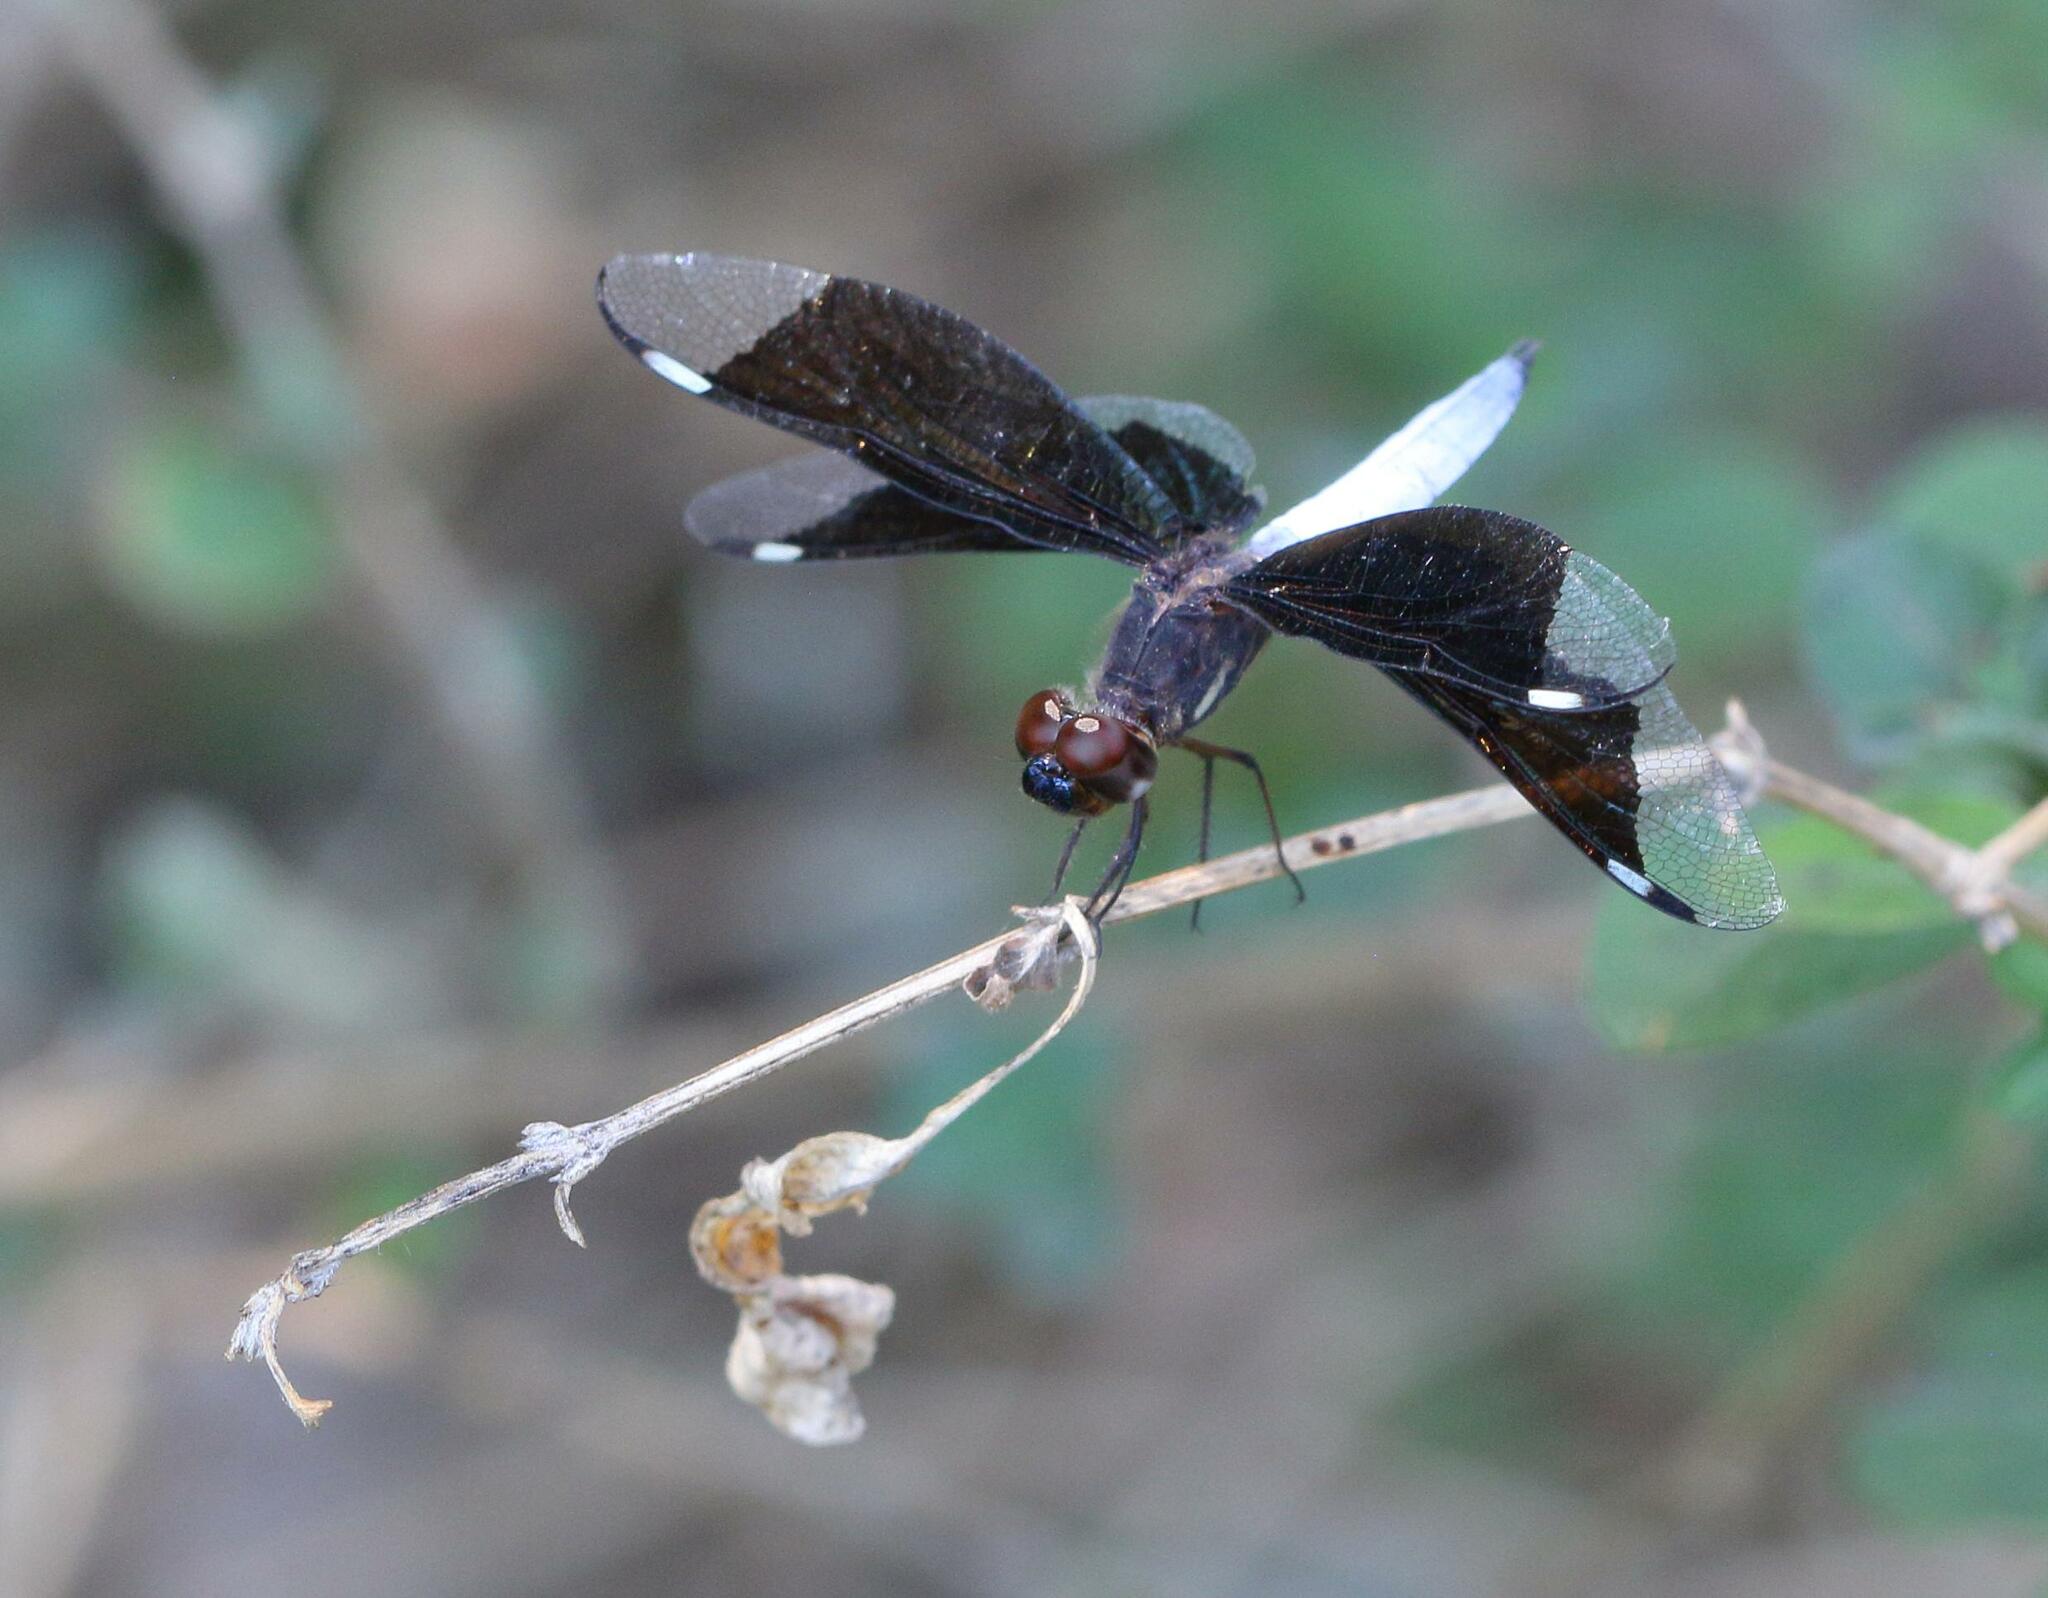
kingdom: Animalia
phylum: Arthropoda
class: Insecta
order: Odonata
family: Libellulidae
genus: Palpopleura
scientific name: Palpopleura lucia
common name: Lucia widow
